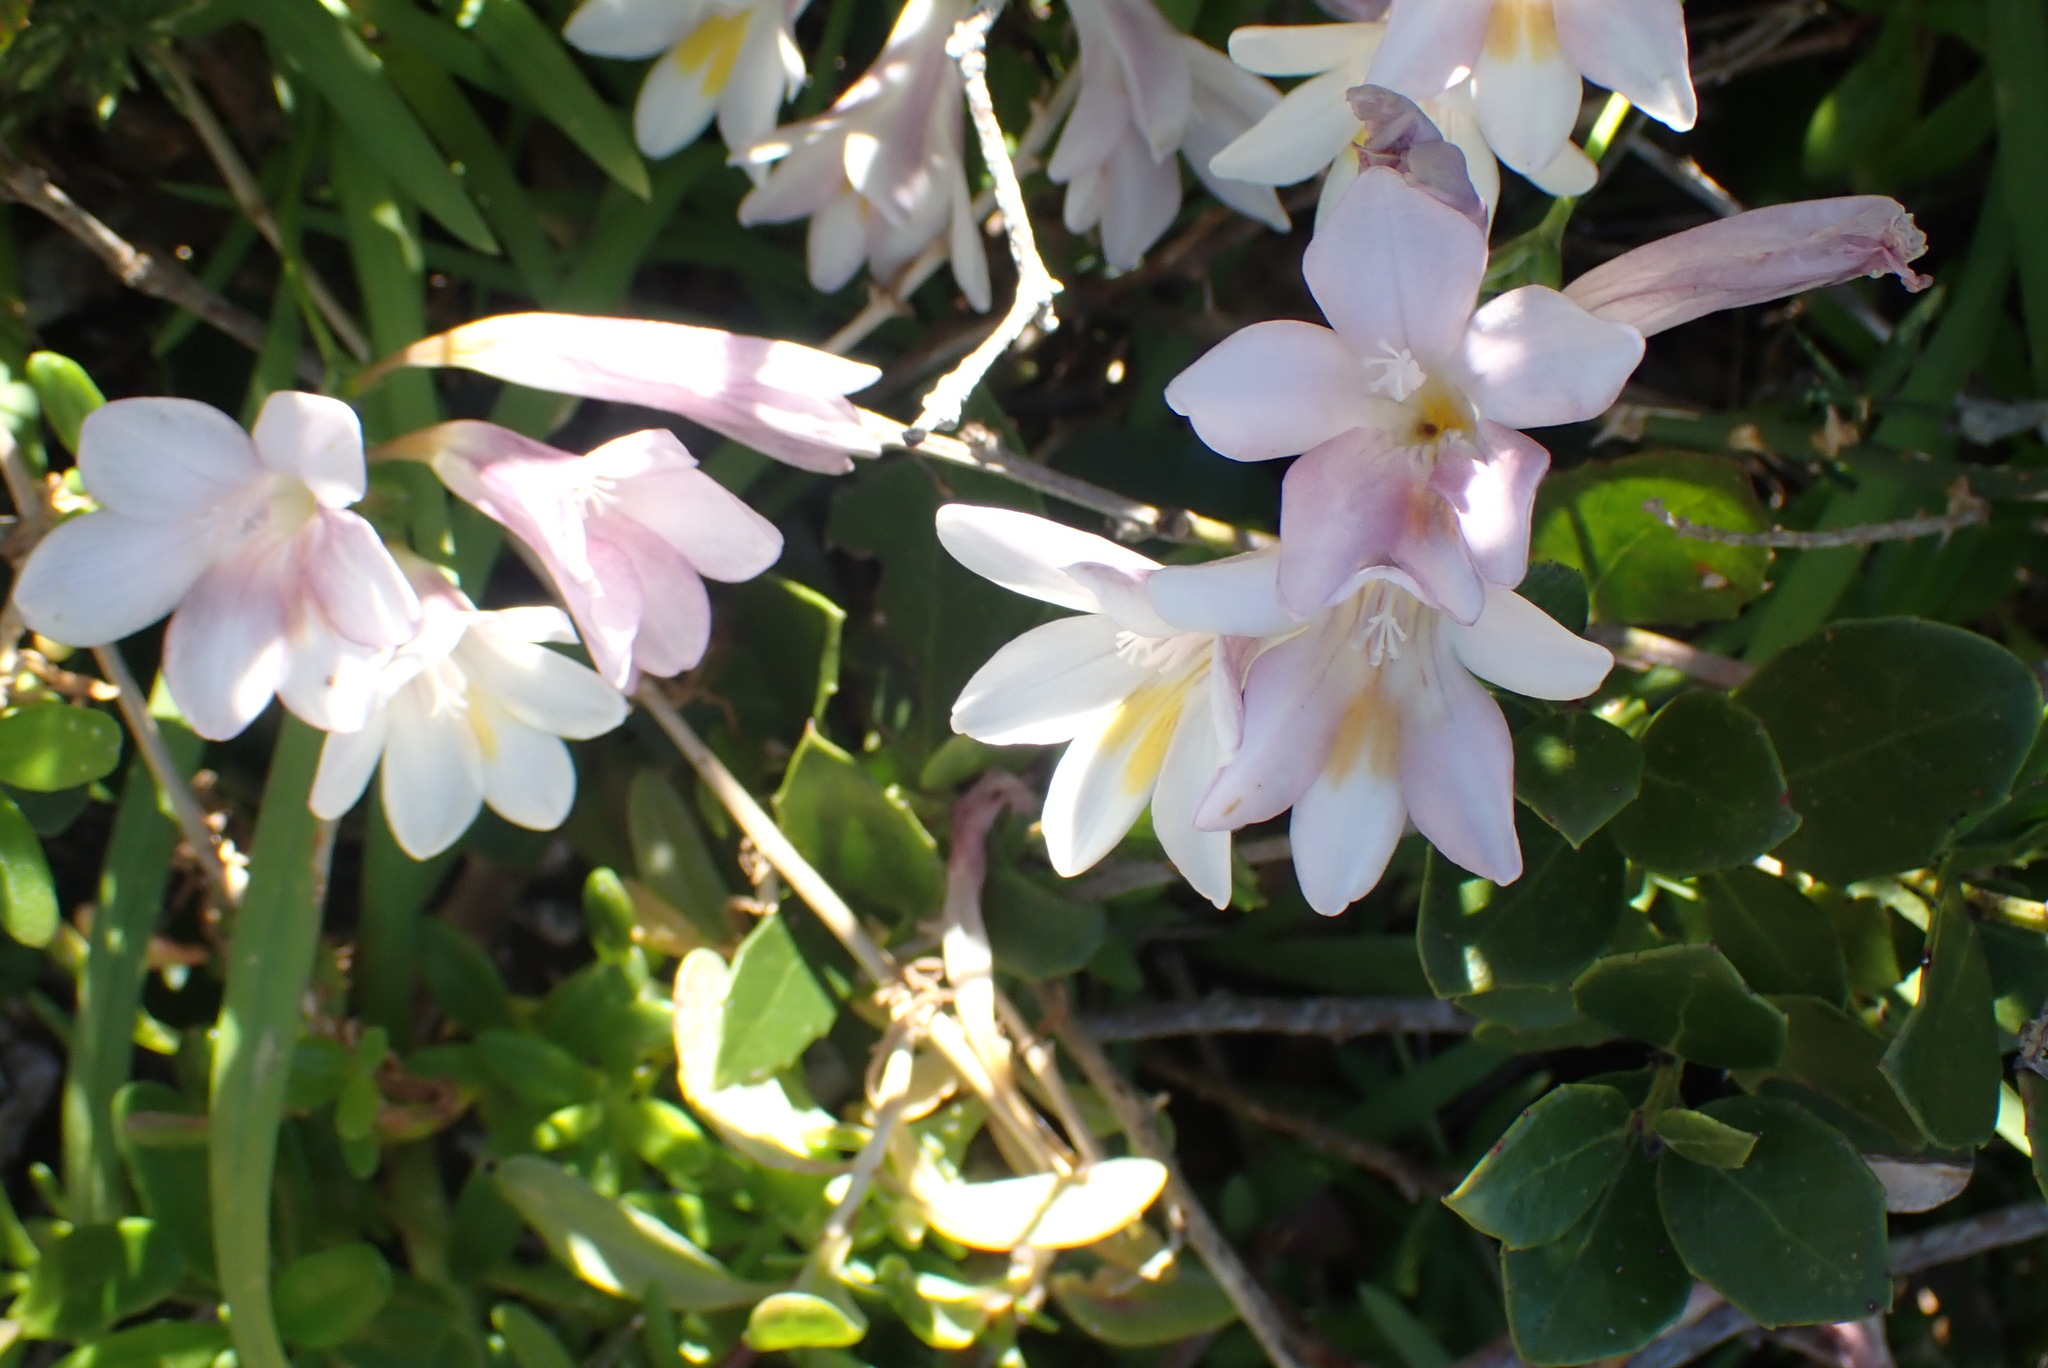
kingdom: Plantae
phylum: Tracheophyta
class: Liliopsida
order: Asparagales
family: Iridaceae
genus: Freesia
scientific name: Freesia leichtlinii
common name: Freesia
